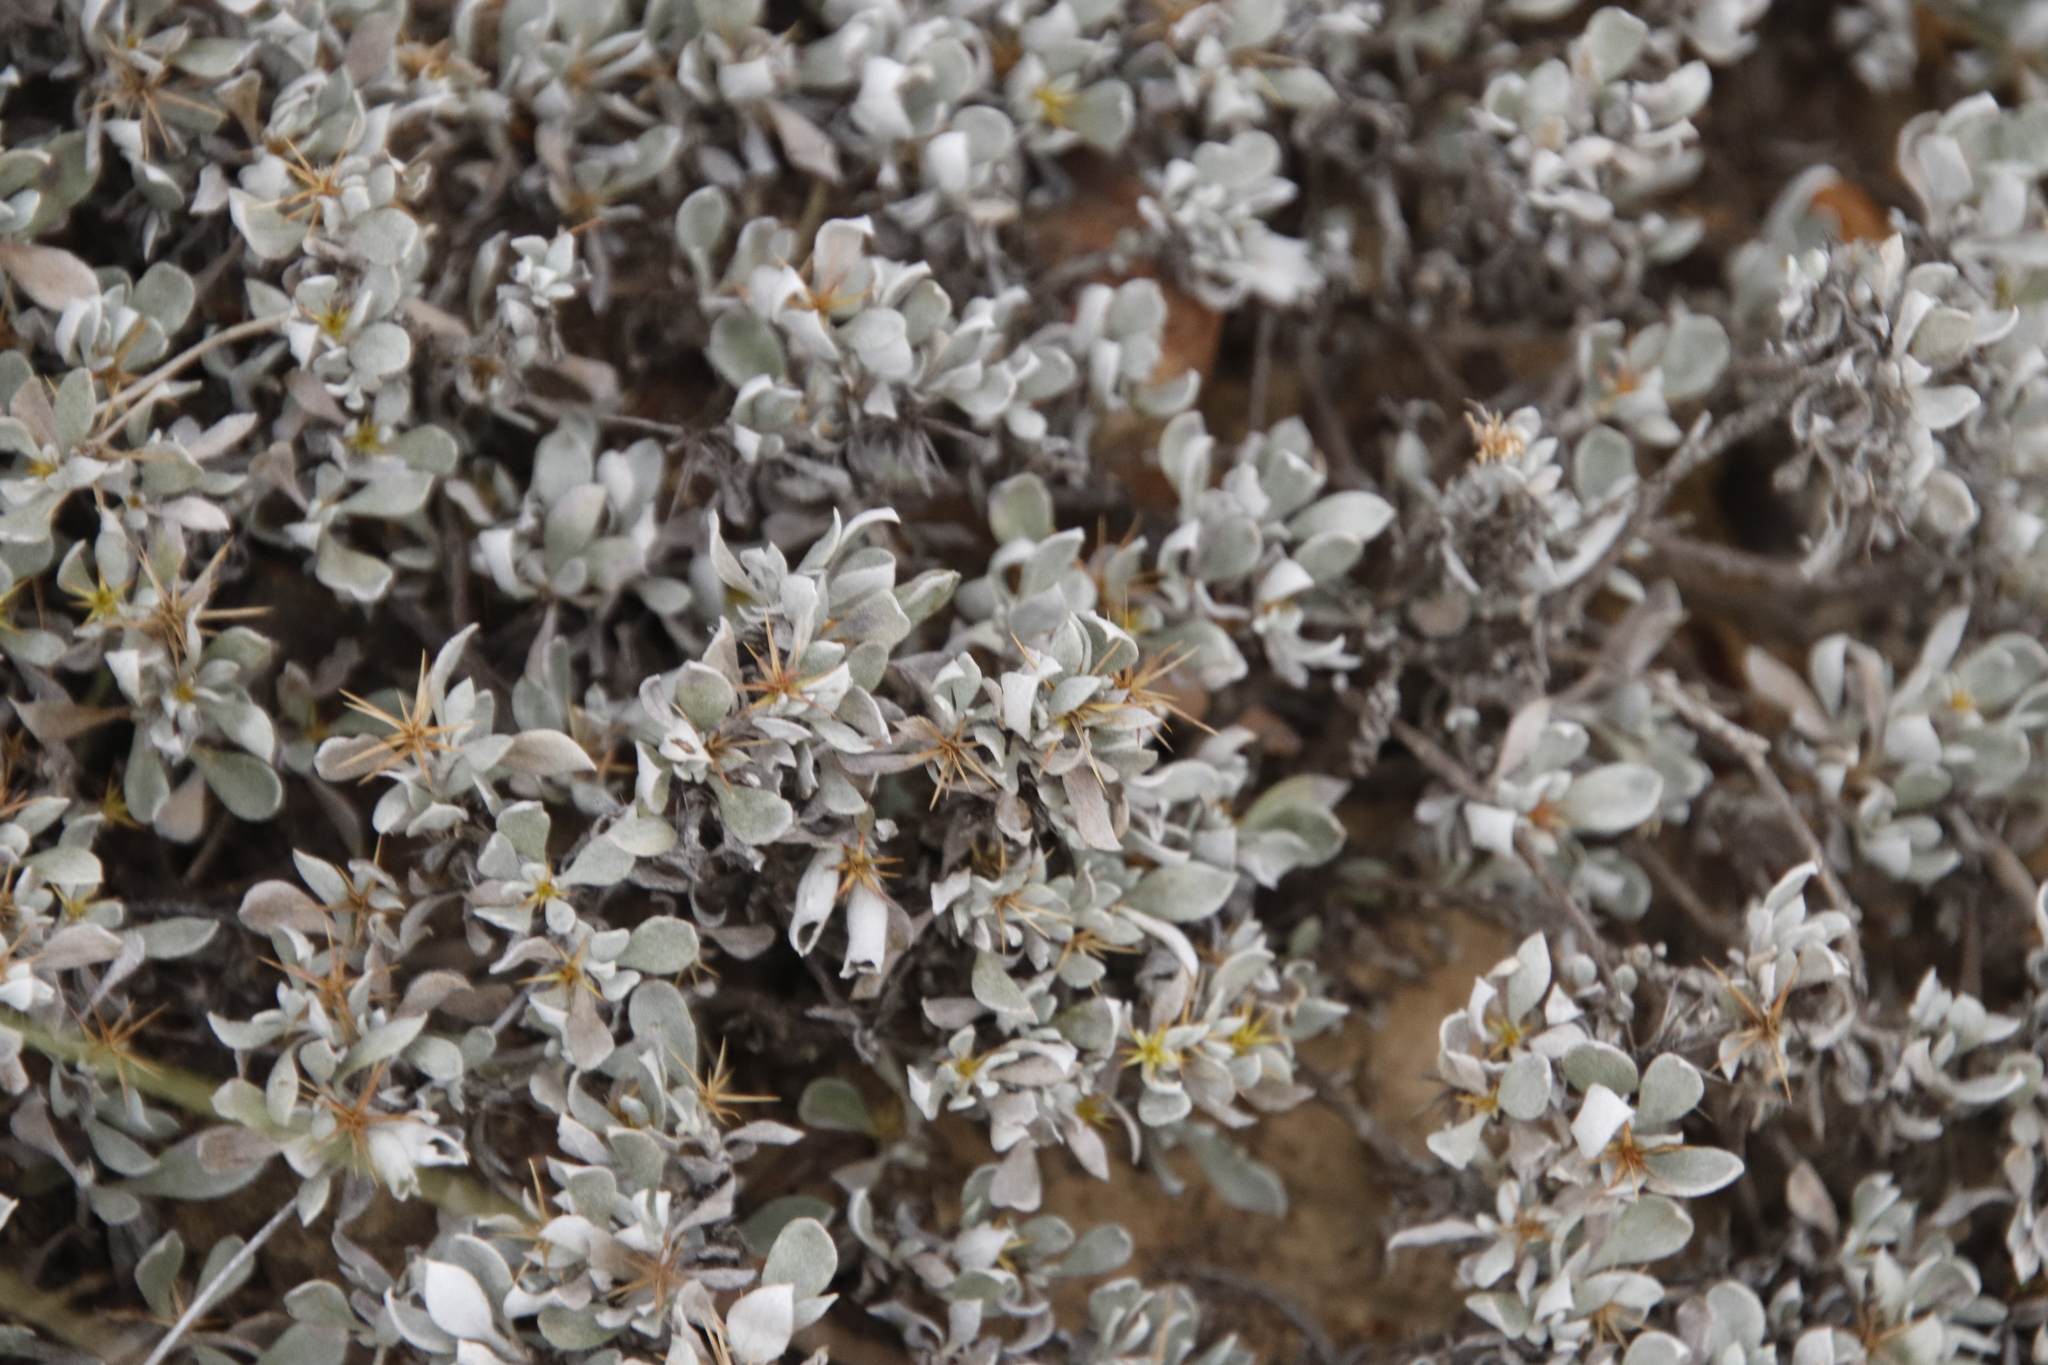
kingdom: Plantae
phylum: Tracheophyta
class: Magnoliopsida
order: Asterales
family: Asteraceae
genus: Macledium
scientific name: Macledium spinosum
